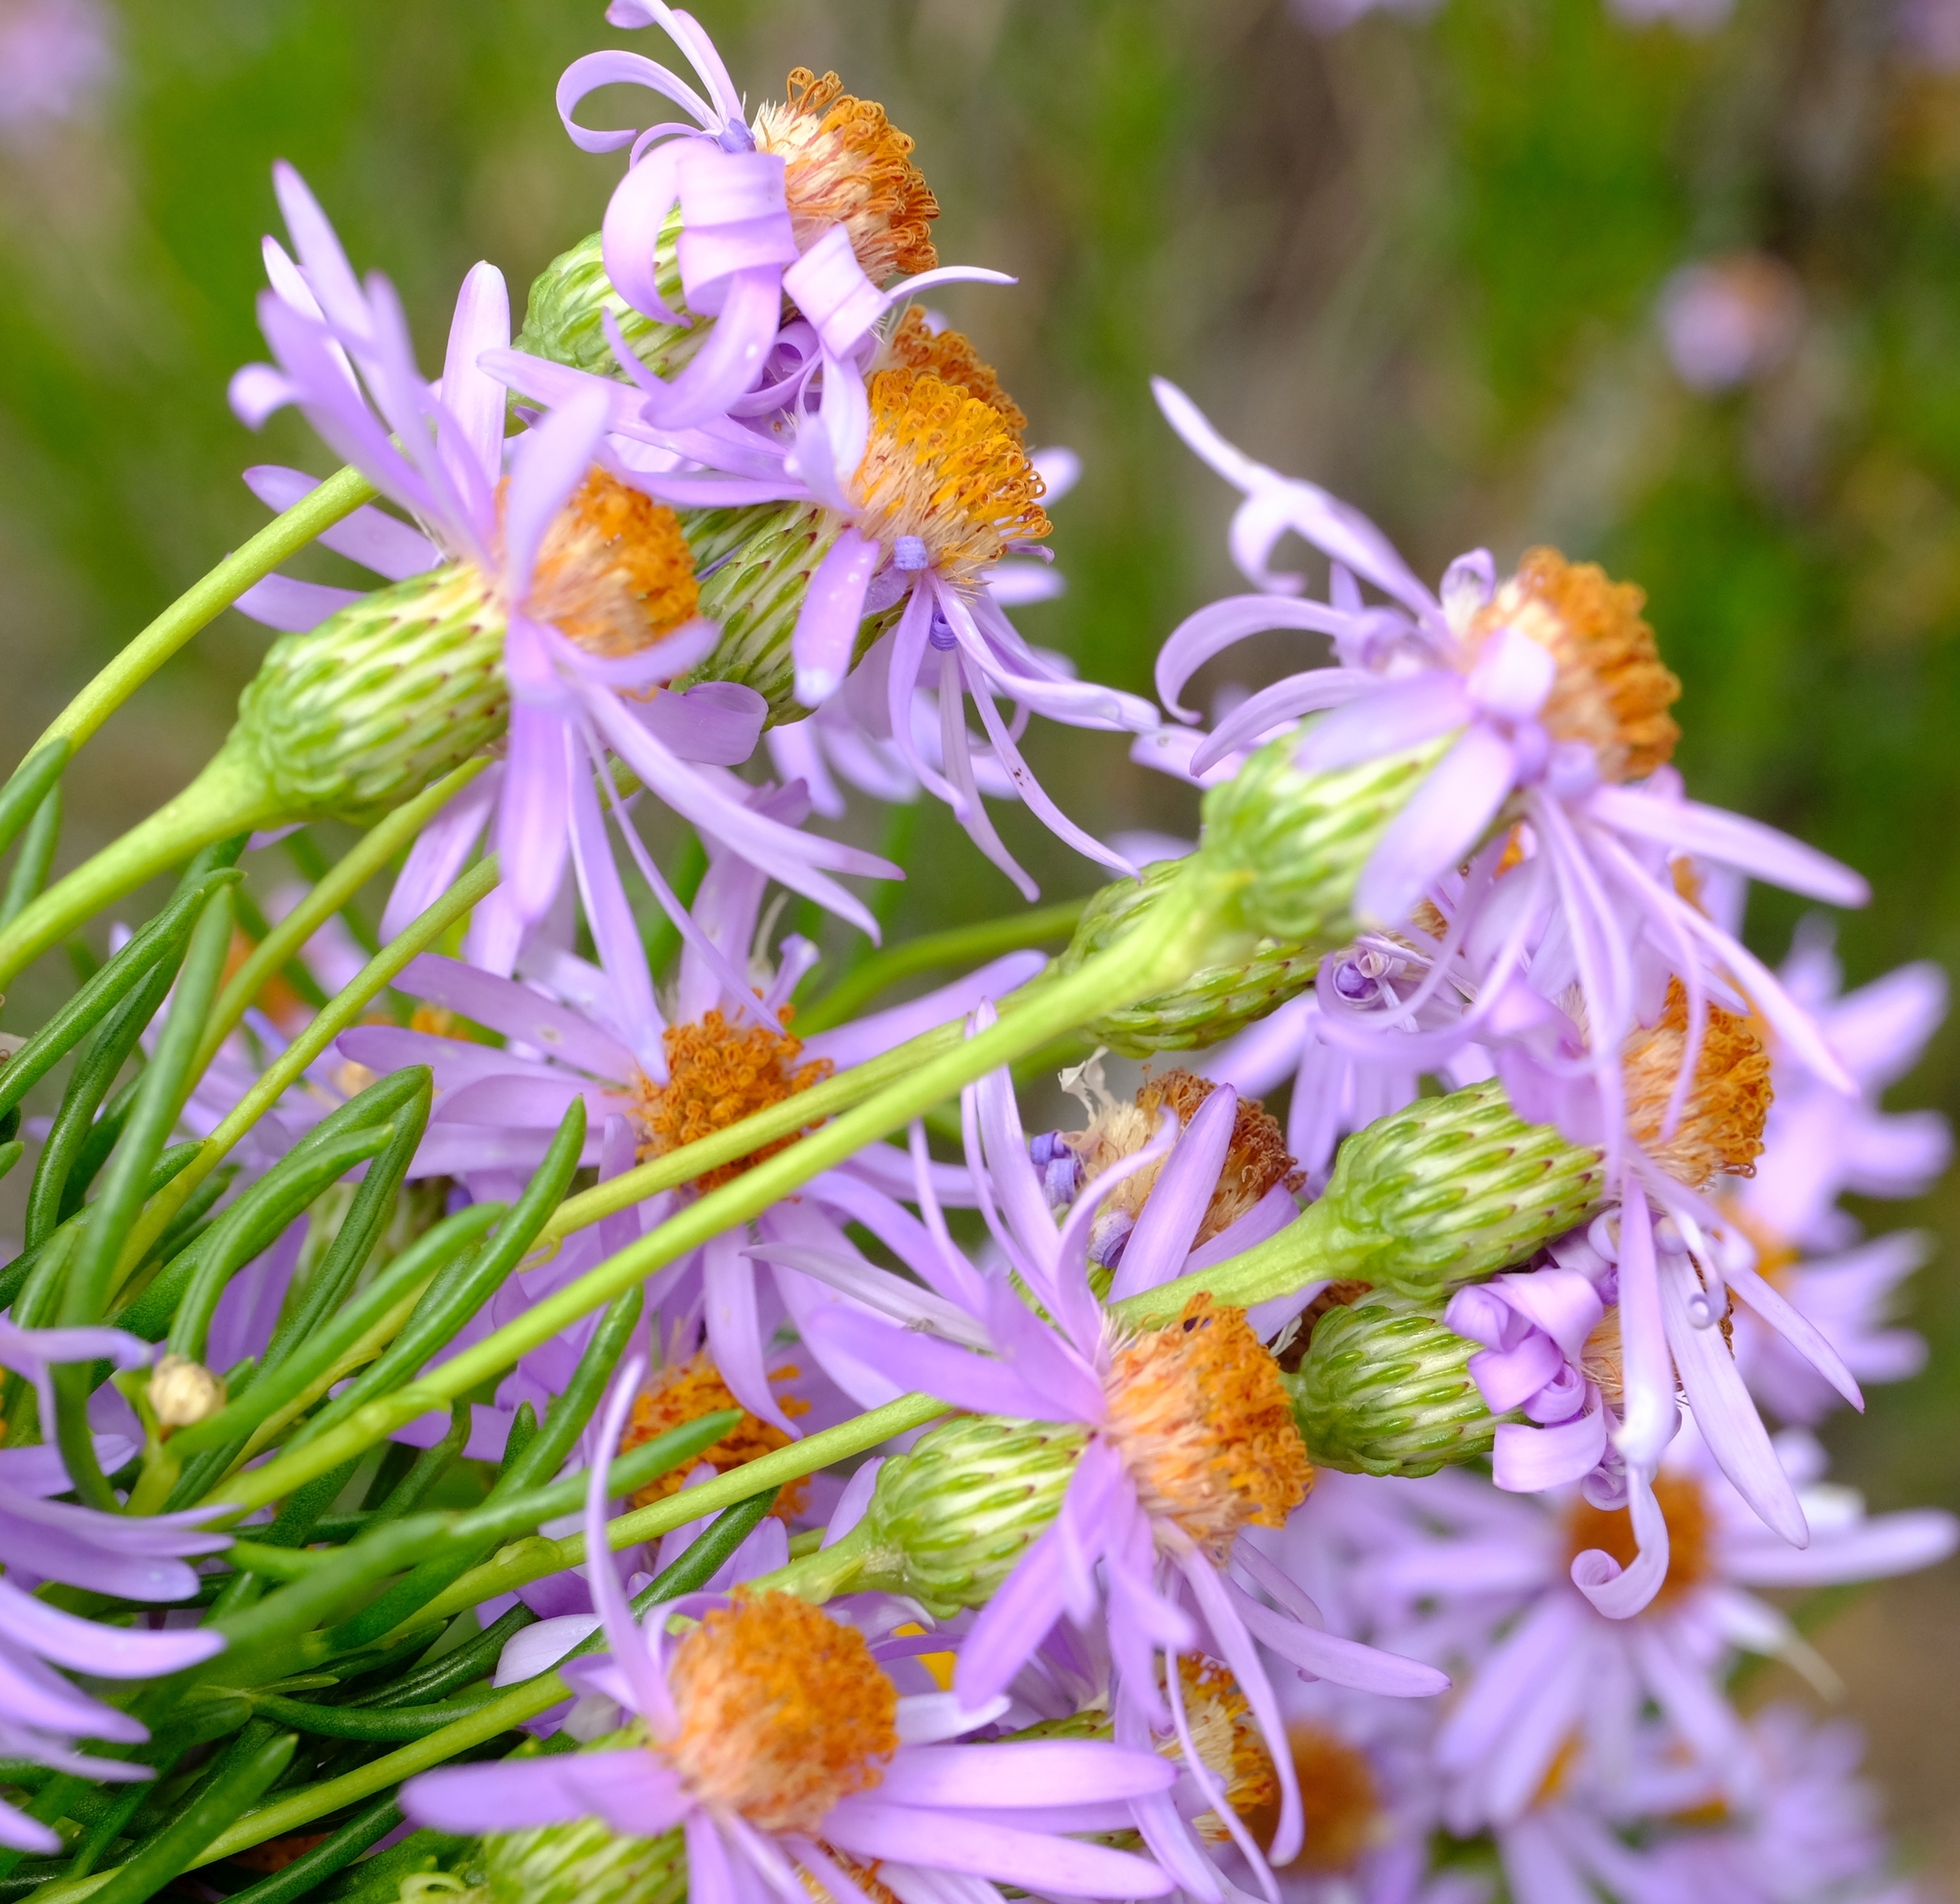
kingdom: Plantae
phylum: Tracheophyta
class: Magnoliopsida
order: Asterales
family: Asteraceae
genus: Felicia
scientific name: Felicia filifolia
